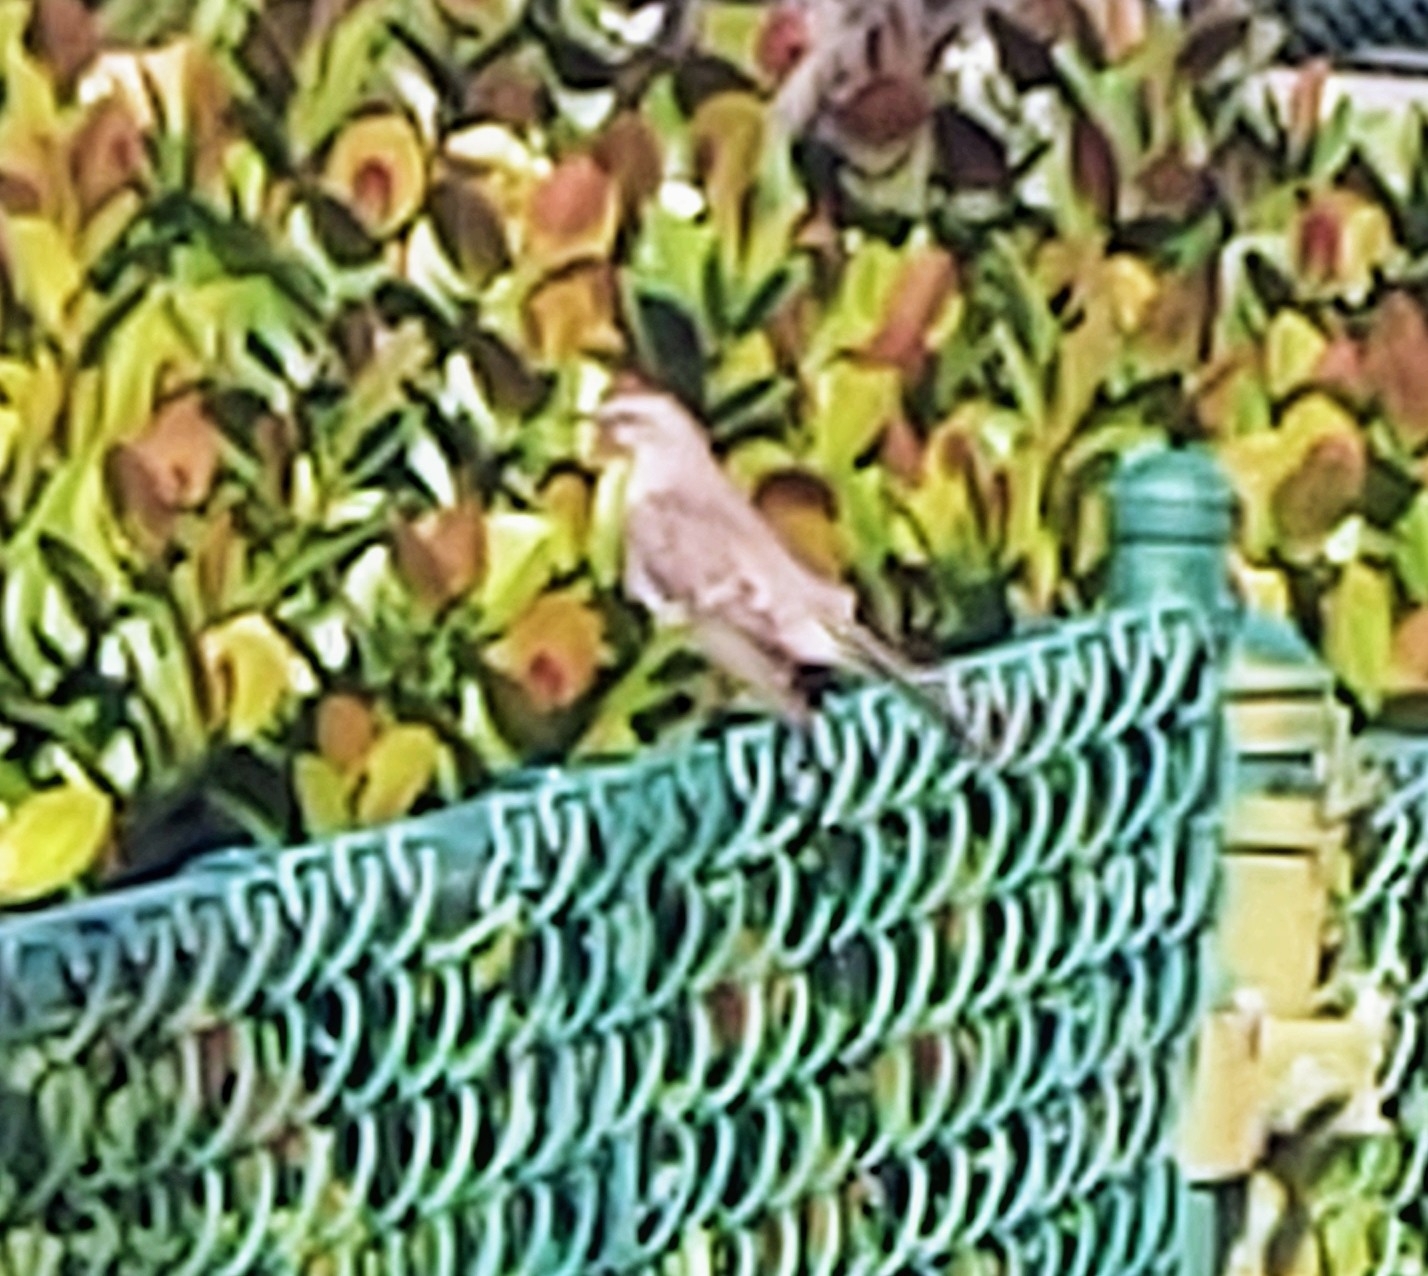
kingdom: Animalia
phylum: Chordata
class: Aves
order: Passeriformes
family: Mimidae
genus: Mimus
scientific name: Mimus polyglottos
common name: Northern mockingbird
